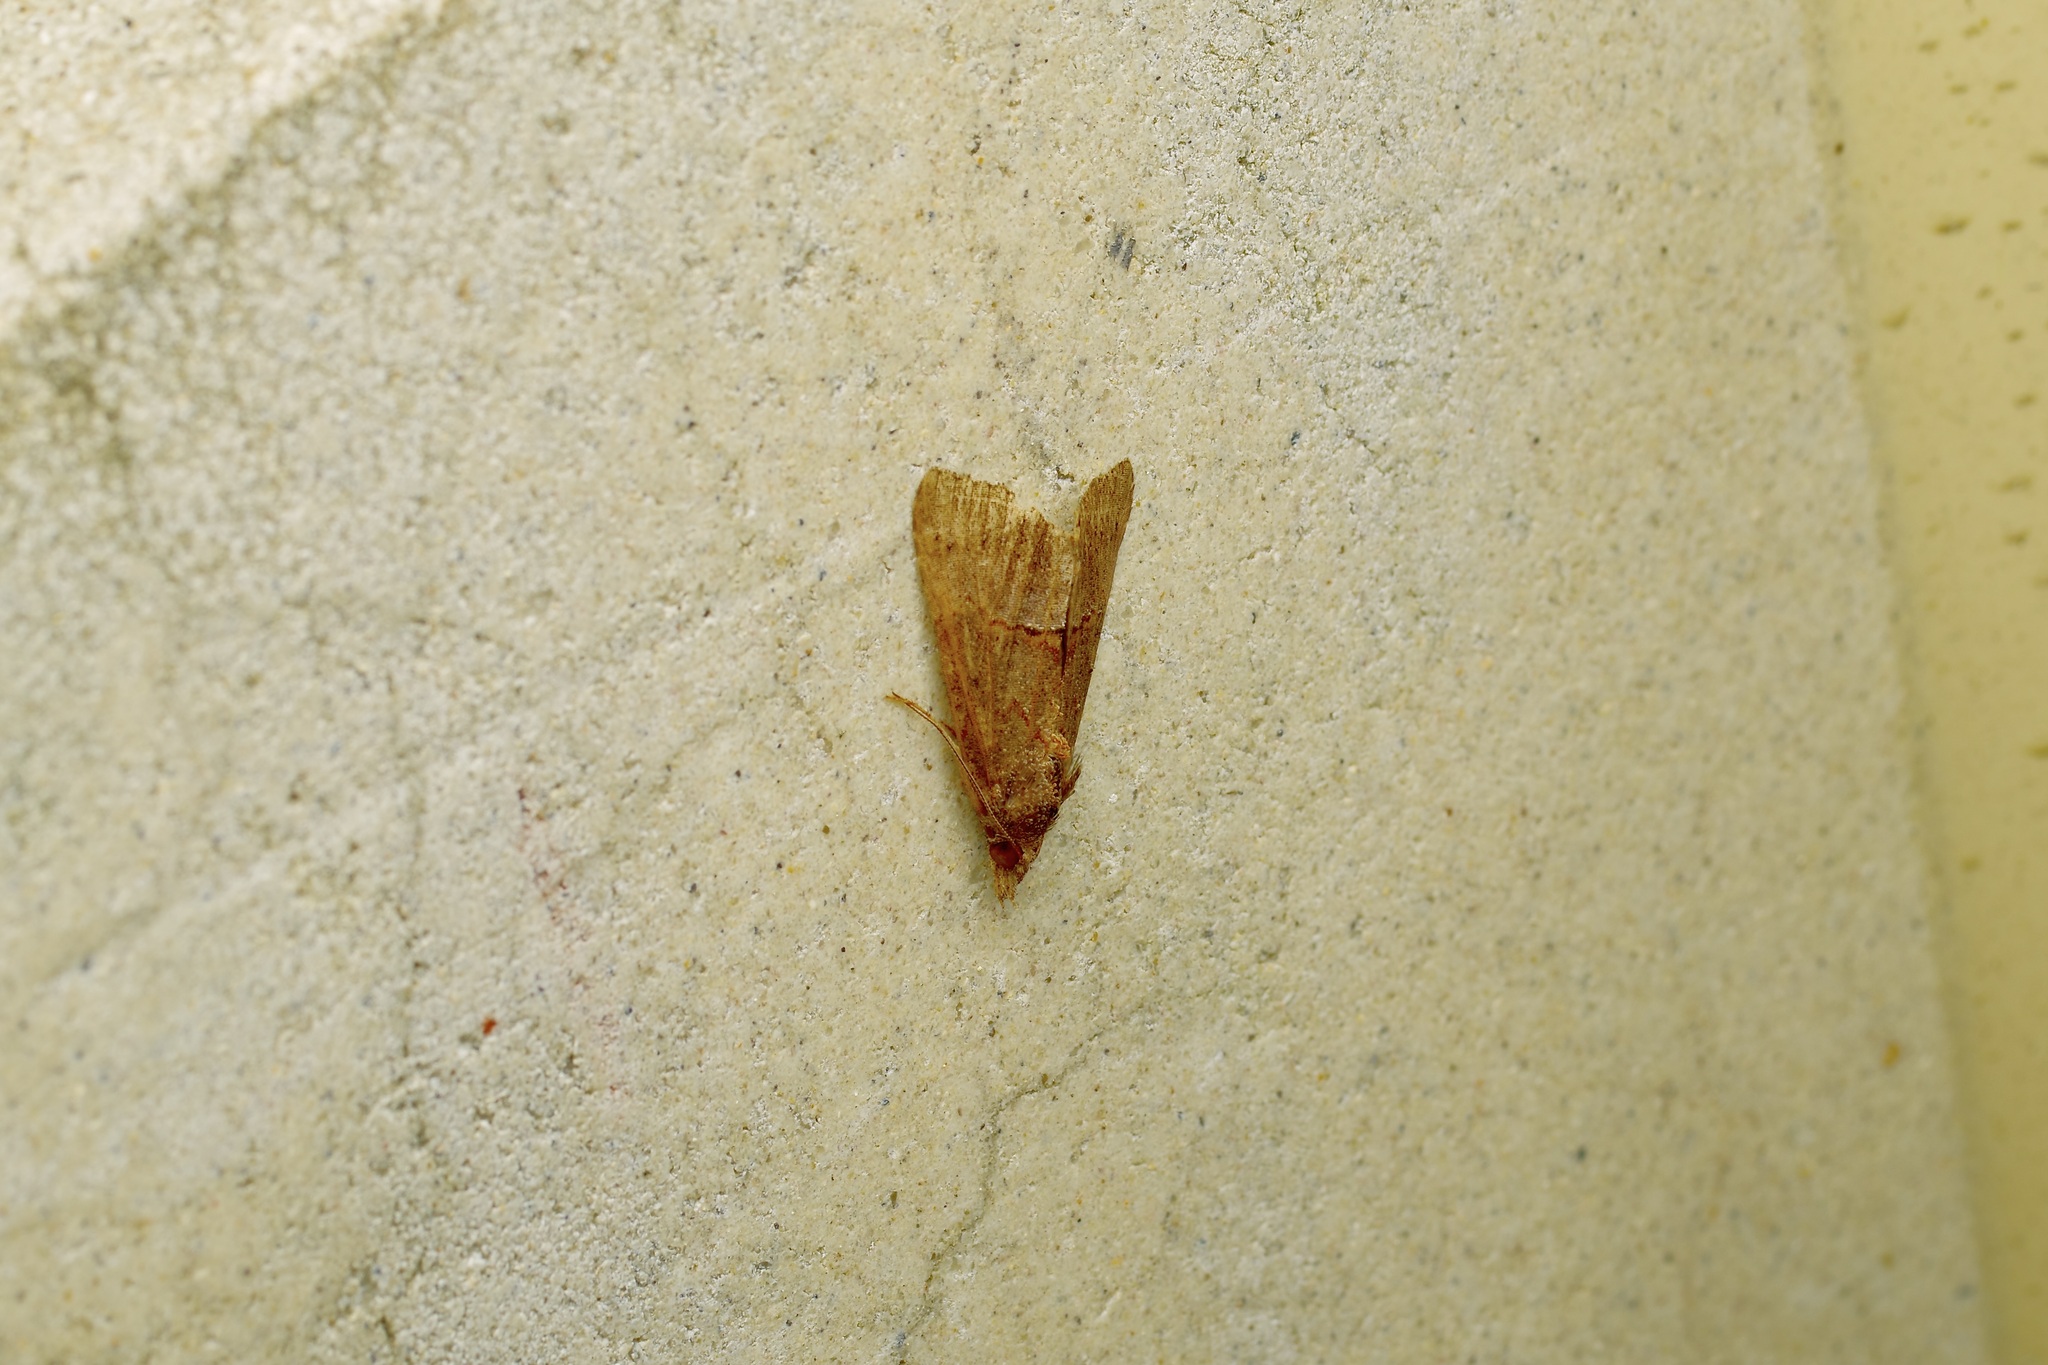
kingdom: Animalia
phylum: Arthropoda
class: Insecta
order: Lepidoptera
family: Erebidae
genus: Hypena
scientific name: Hypena scabra
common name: Green cloverworm
